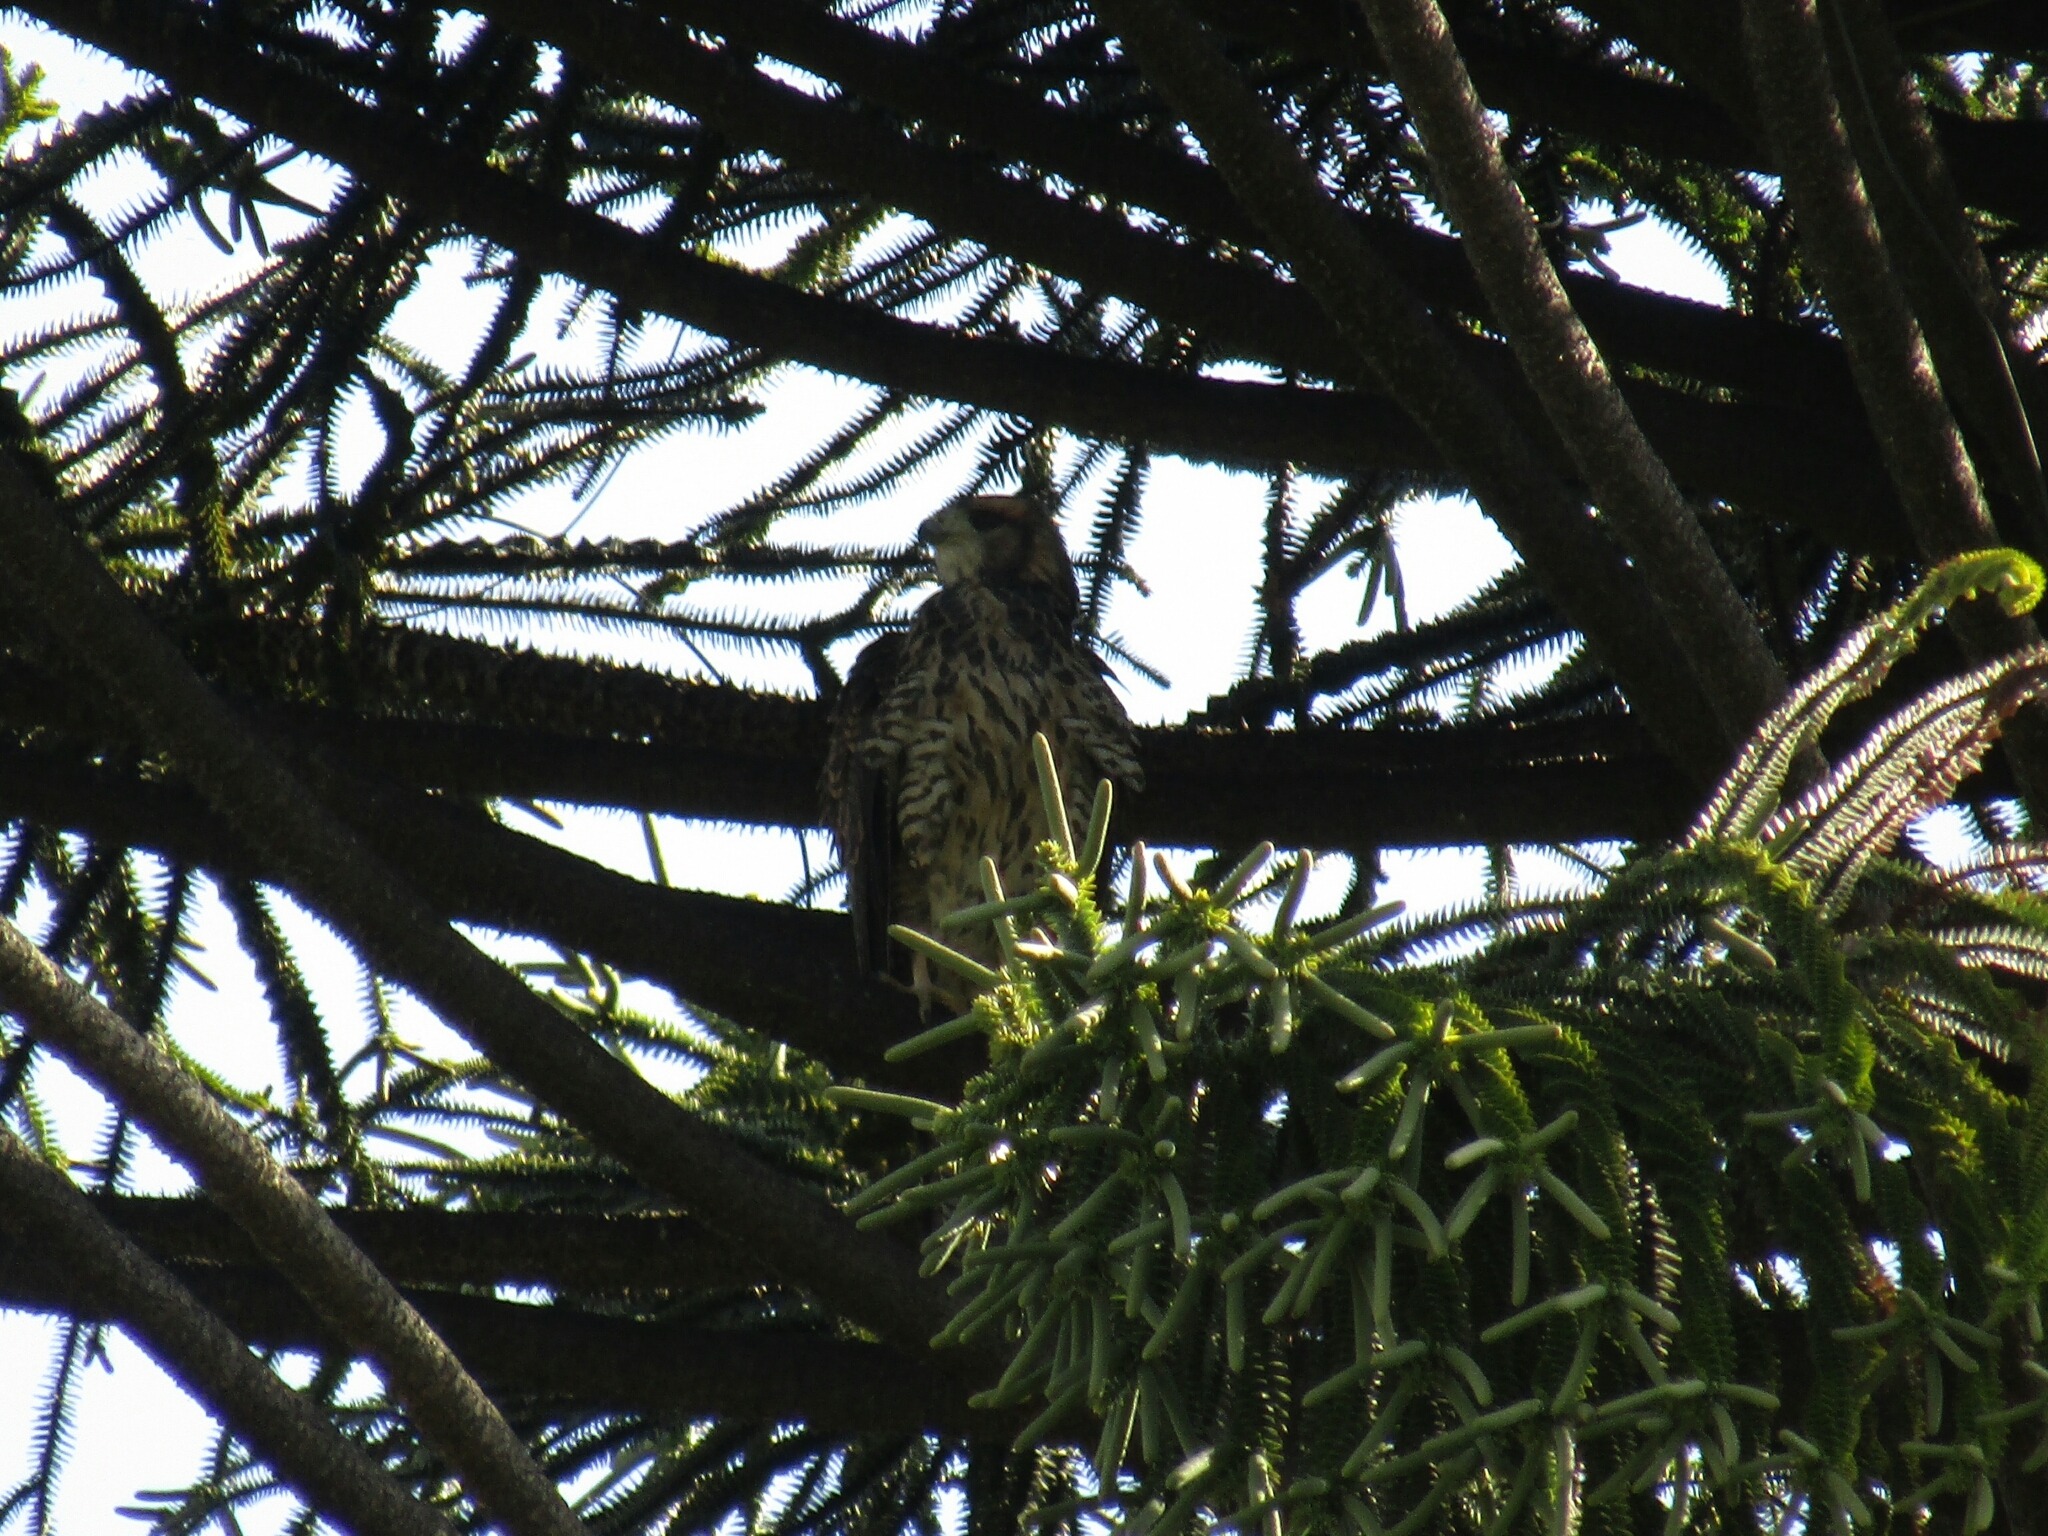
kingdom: Animalia
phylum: Chordata
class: Aves
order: Accipitriformes
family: Accipitridae
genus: Parabuteo
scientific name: Parabuteo unicinctus
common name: Harris's hawk
